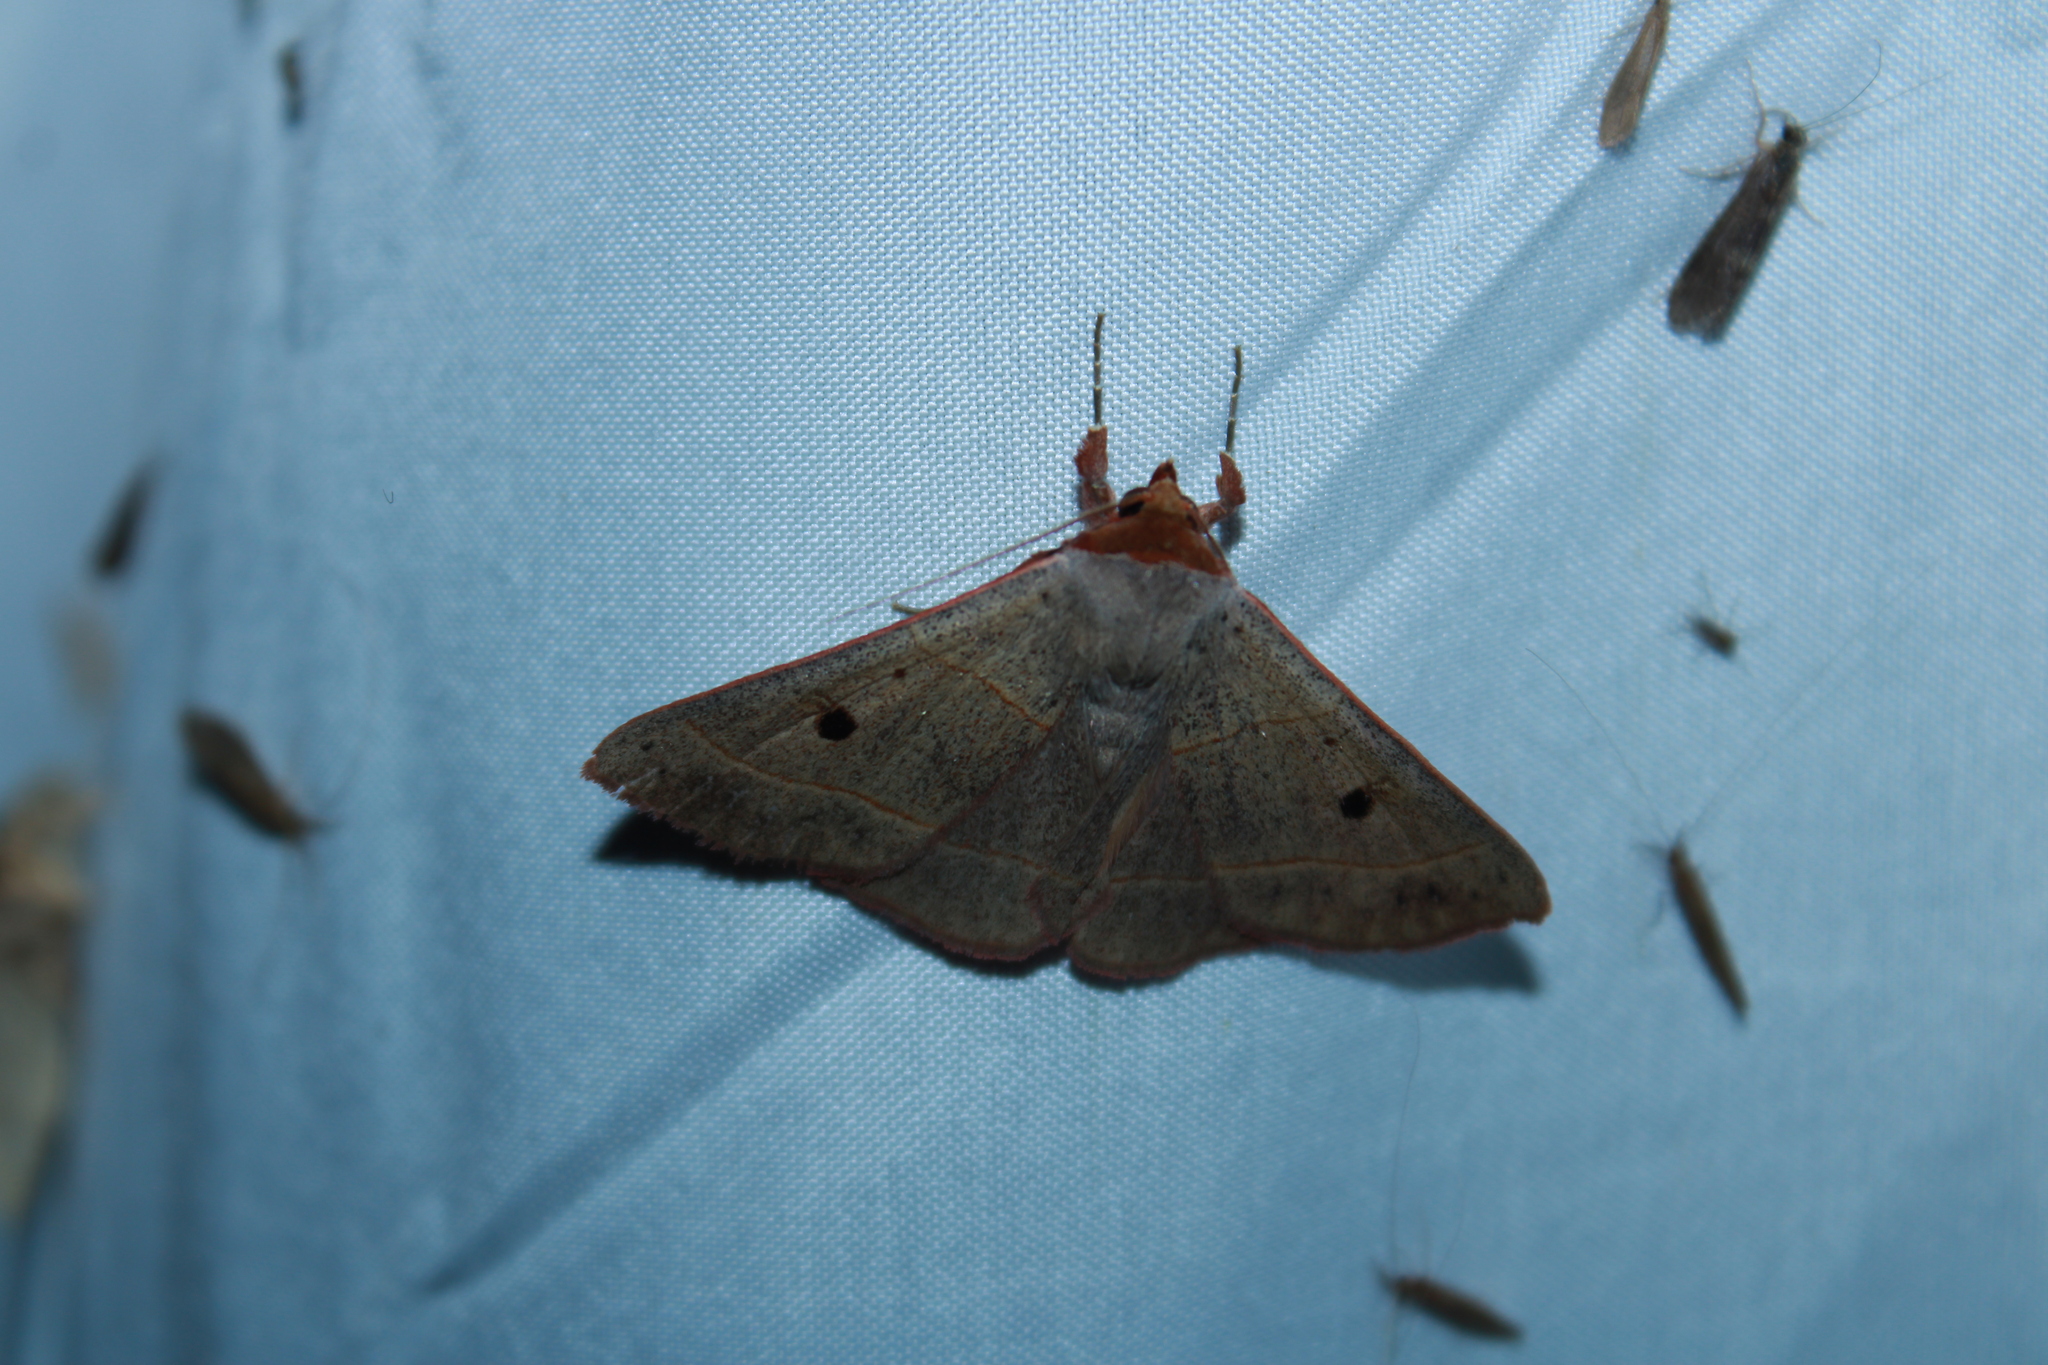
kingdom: Animalia
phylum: Arthropoda
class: Insecta
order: Lepidoptera
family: Erebidae
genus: Panopoda
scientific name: Panopoda rufimargo
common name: Red-lined panopoda moth
